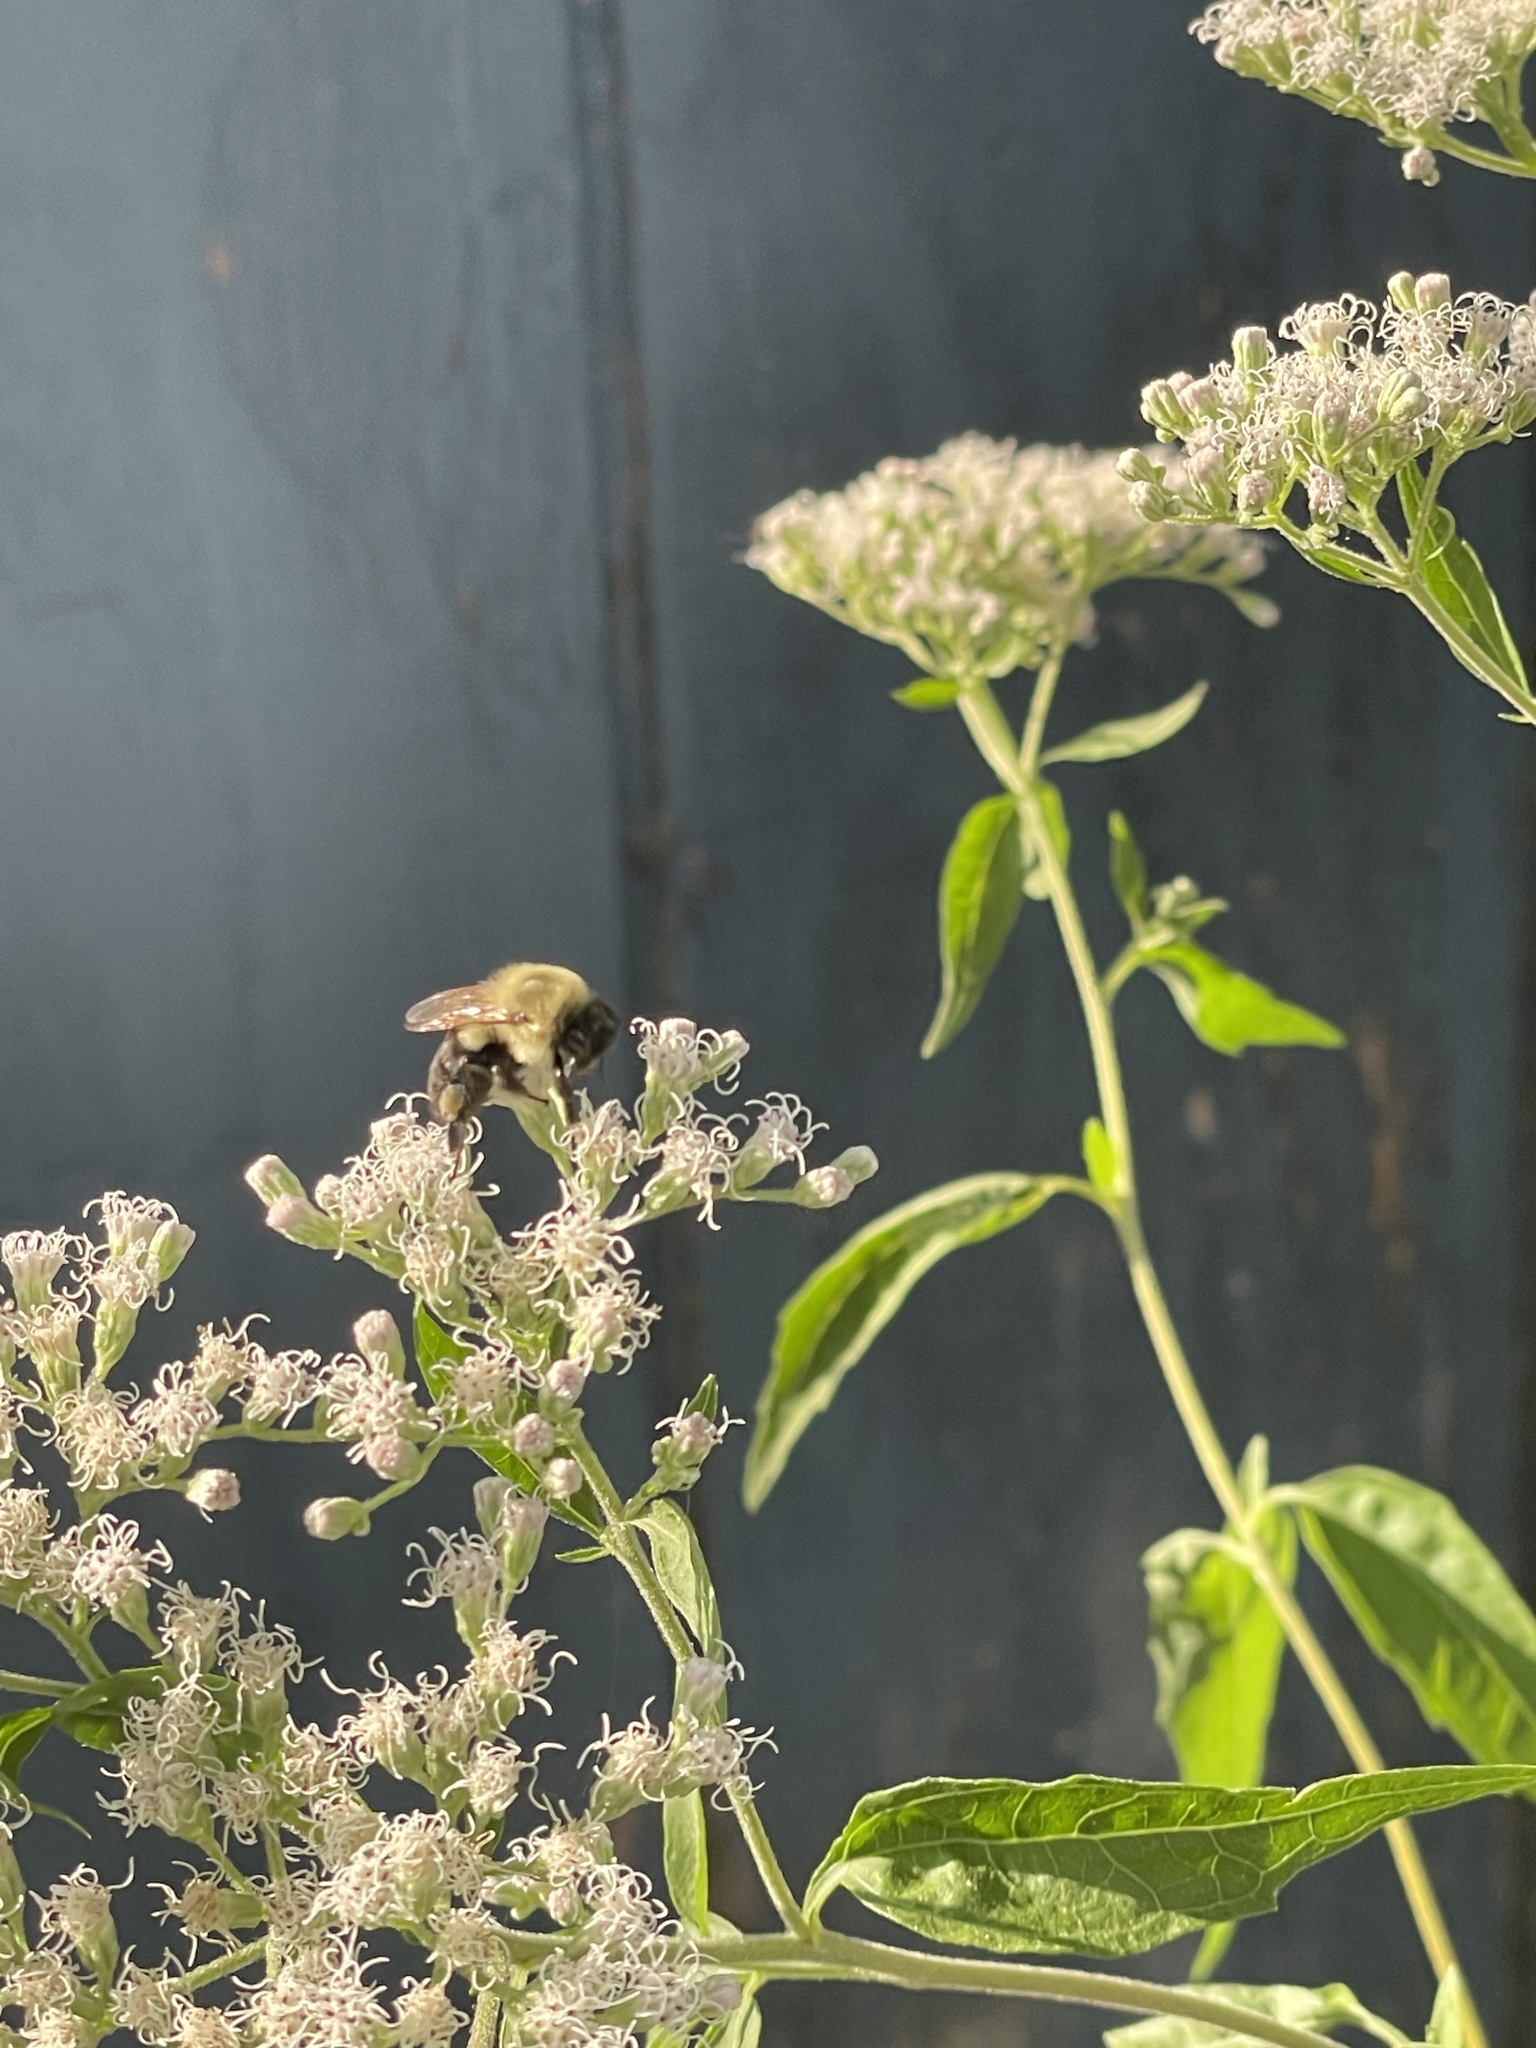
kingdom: Animalia
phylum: Arthropoda
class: Insecta
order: Hymenoptera
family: Apidae
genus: Bombus
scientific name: Bombus impatiens
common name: Common eastern bumble bee
